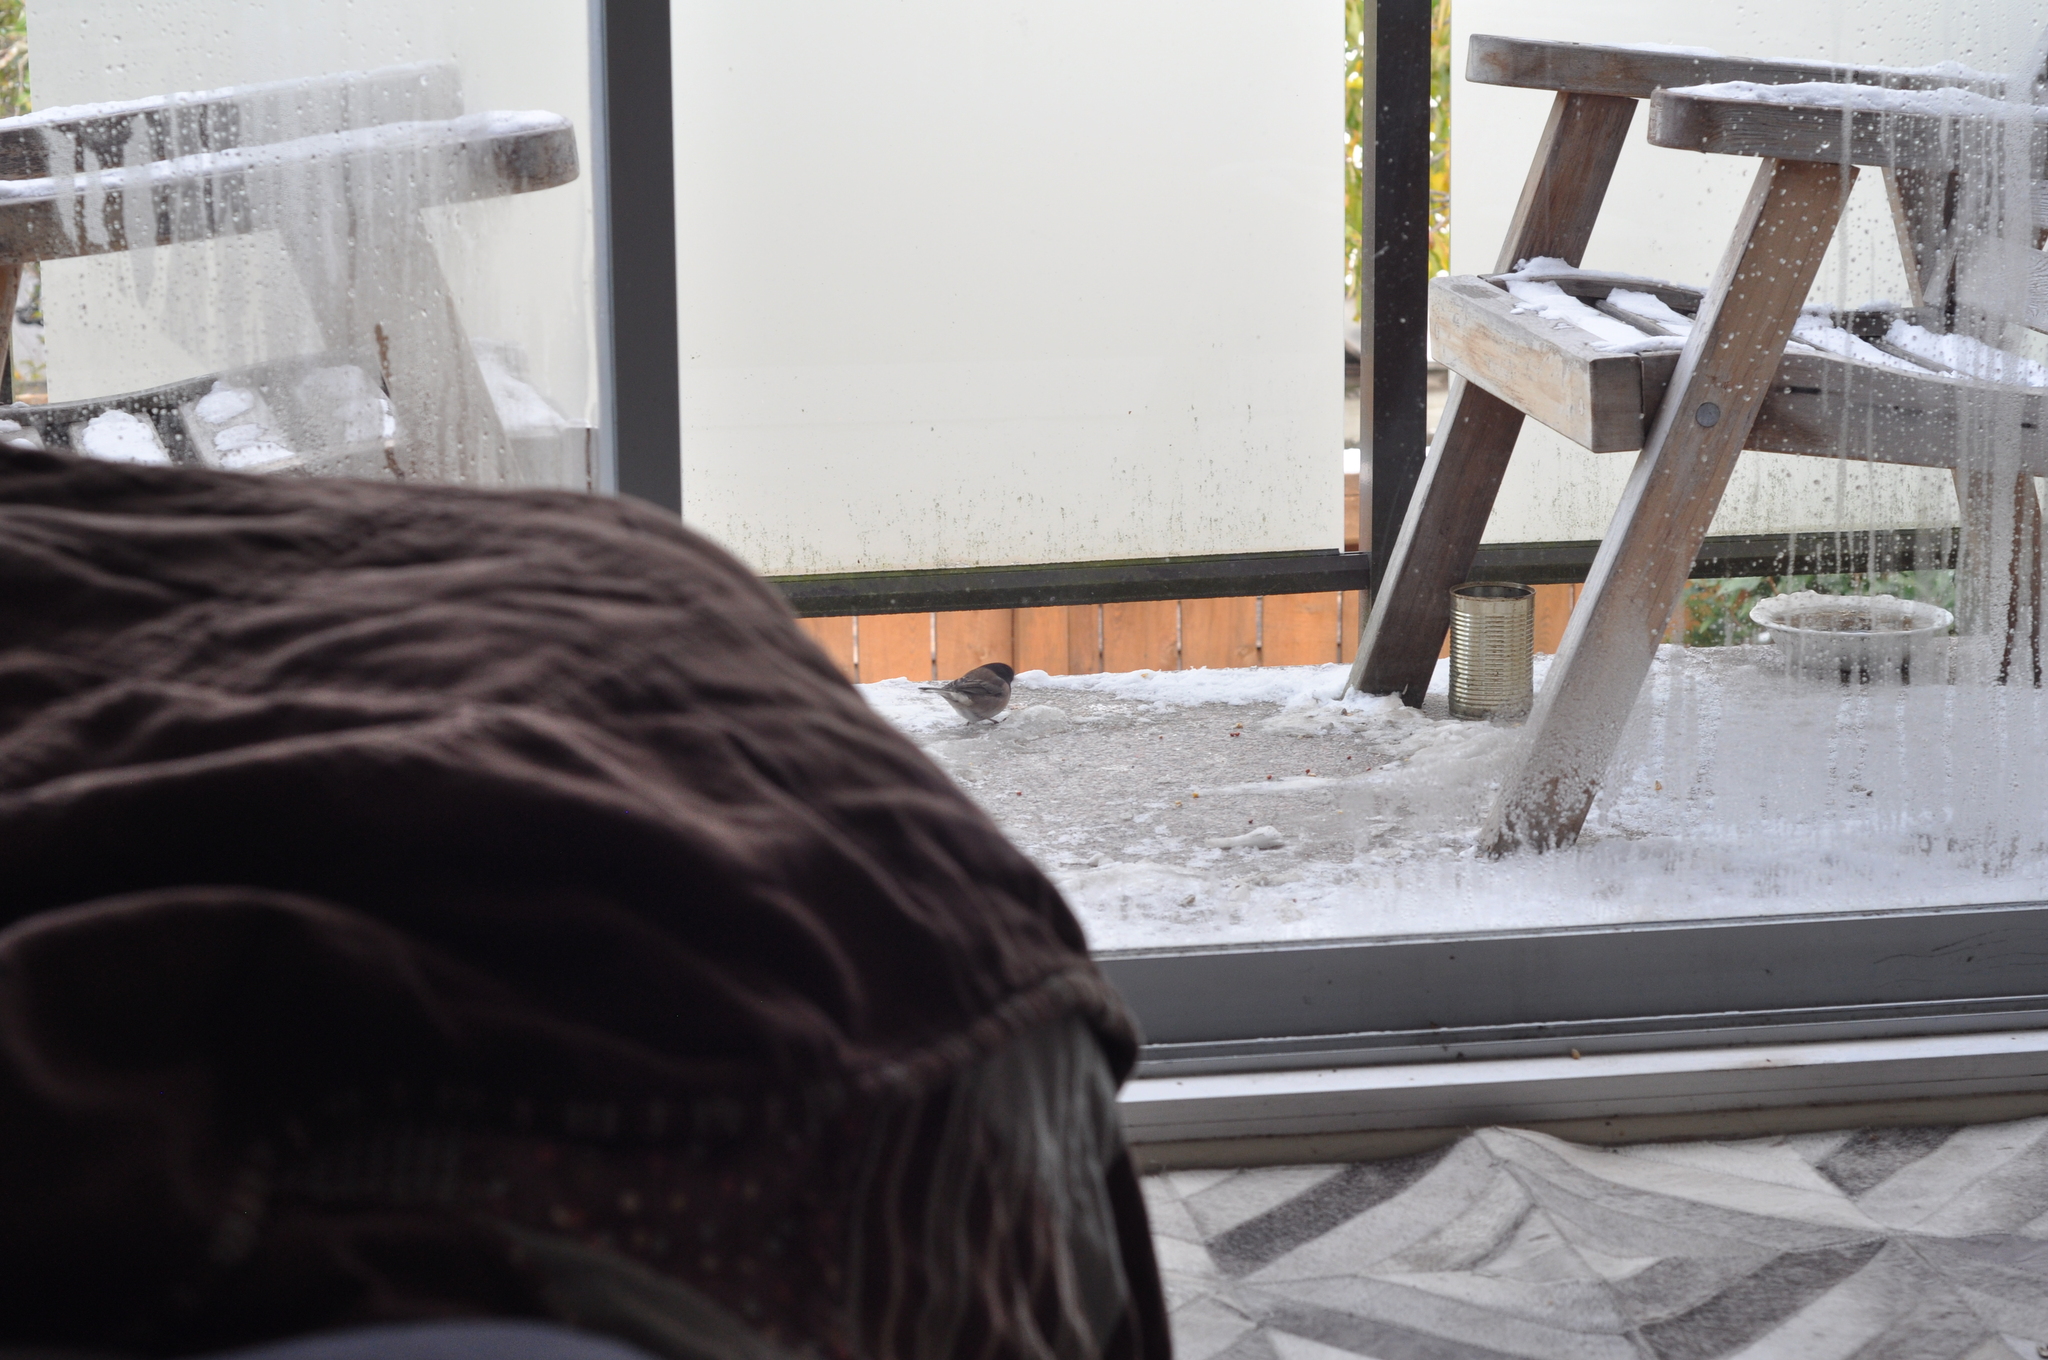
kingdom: Animalia
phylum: Chordata
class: Aves
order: Passeriformes
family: Passerellidae
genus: Junco
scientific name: Junco hyemalis
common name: Dark-eyed junco
